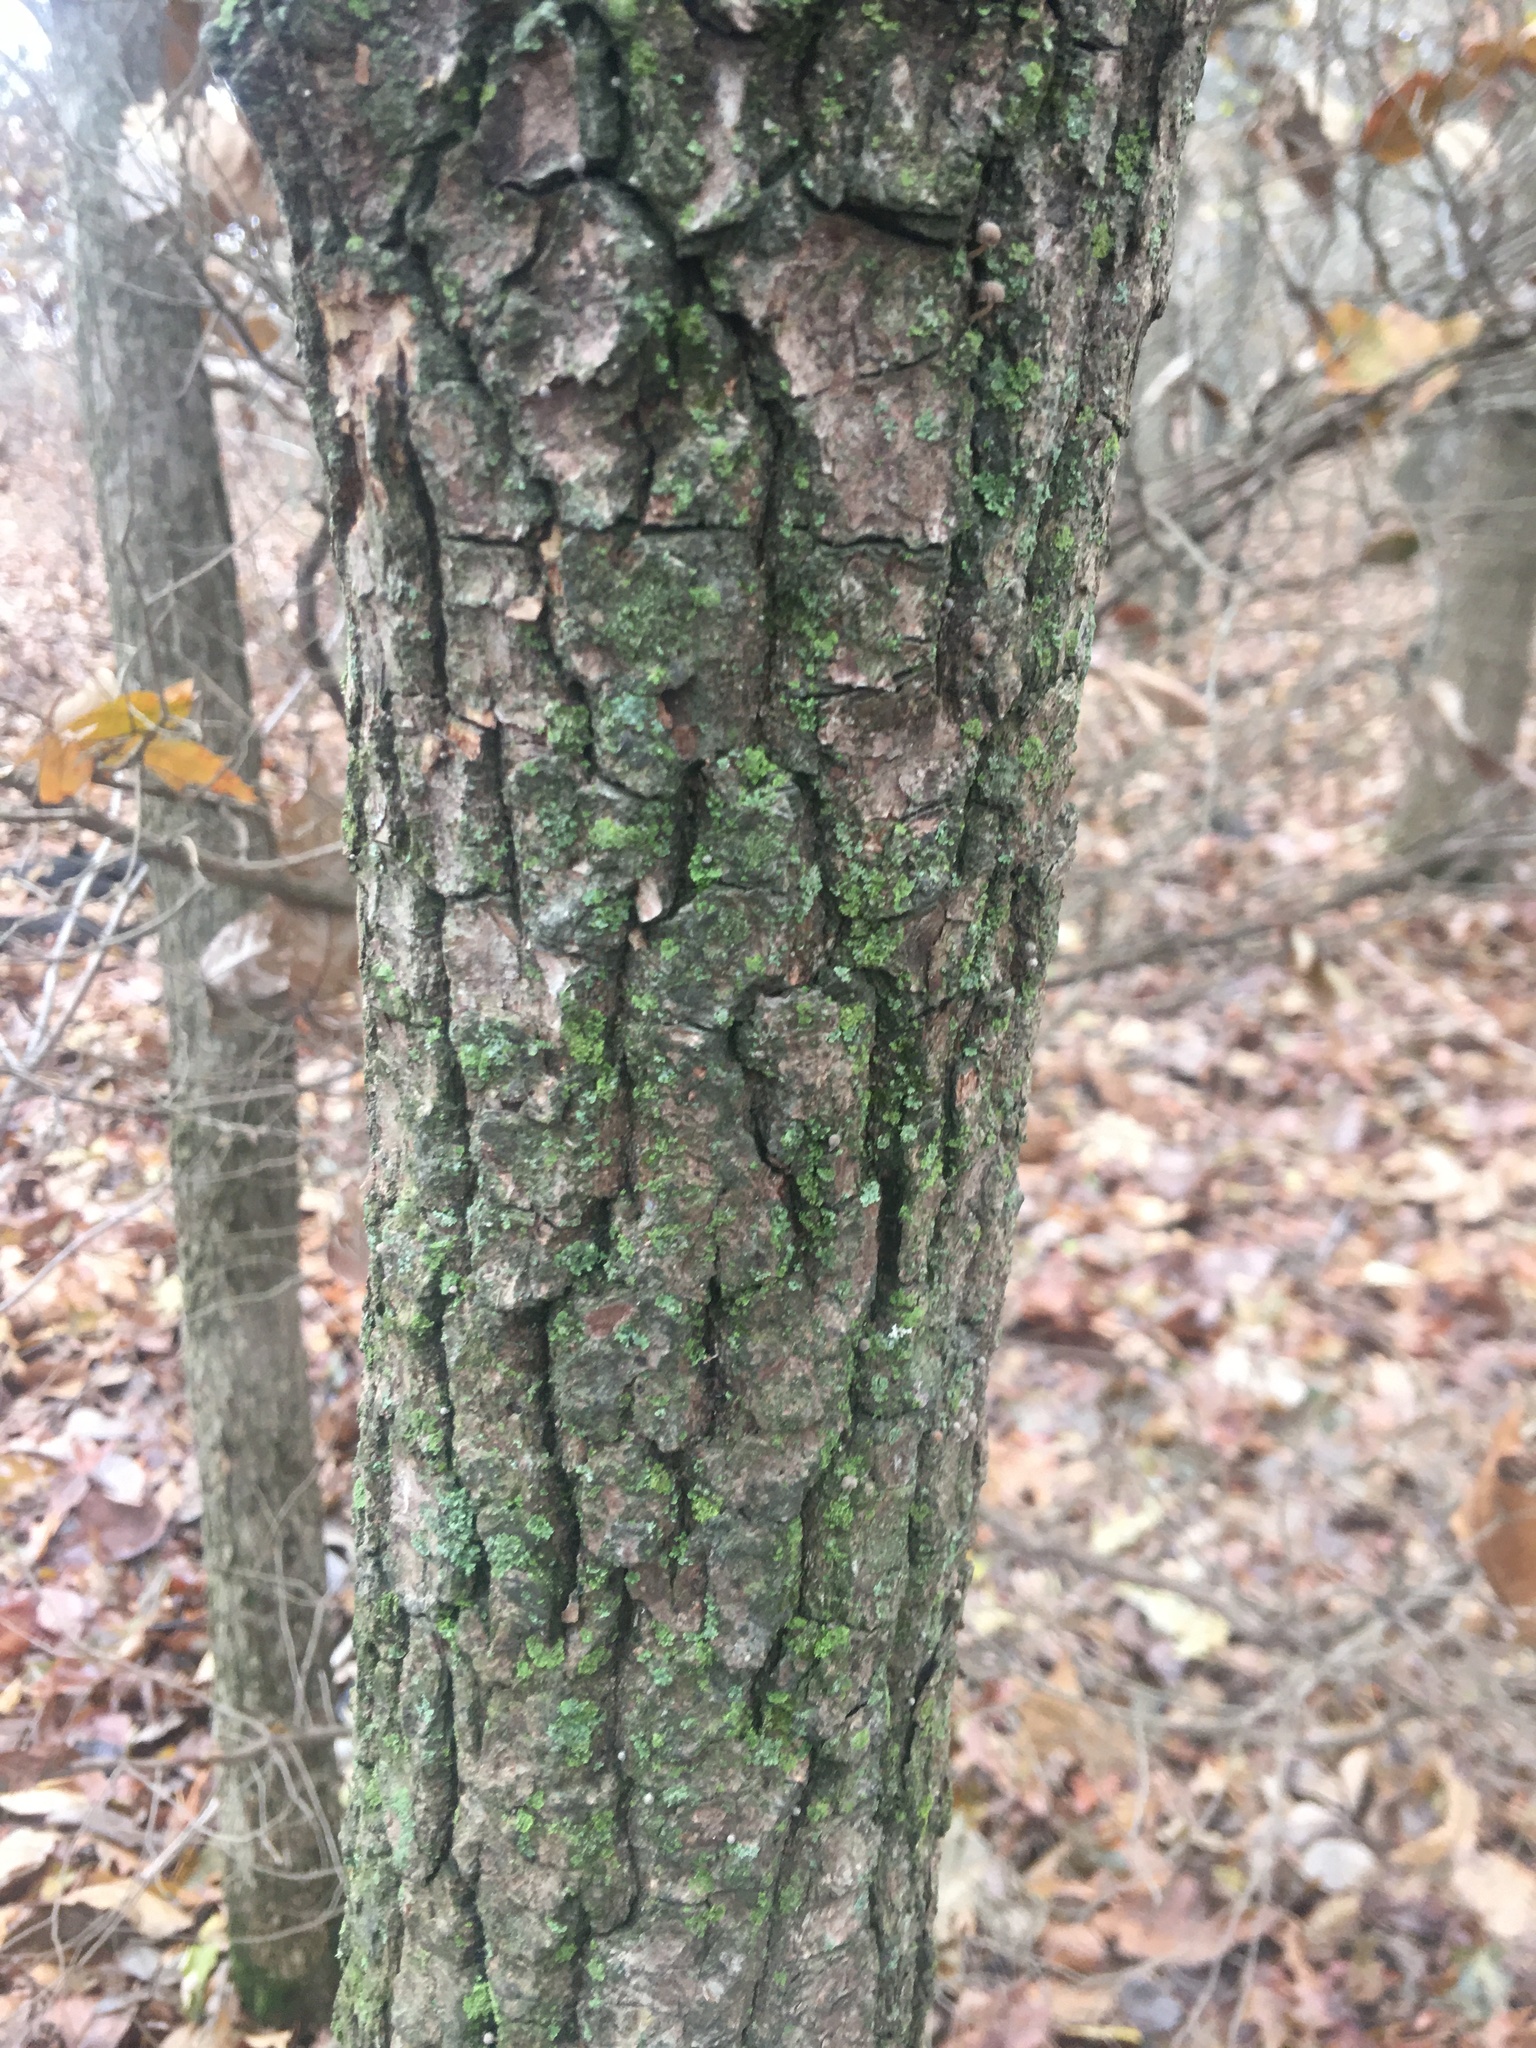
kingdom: Plantae
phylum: Tracheophyta
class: Magnoliopsida
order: Ericales
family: Ebenaceae
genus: Diospyros
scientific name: Diospyros virginiana
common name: Persimmon
